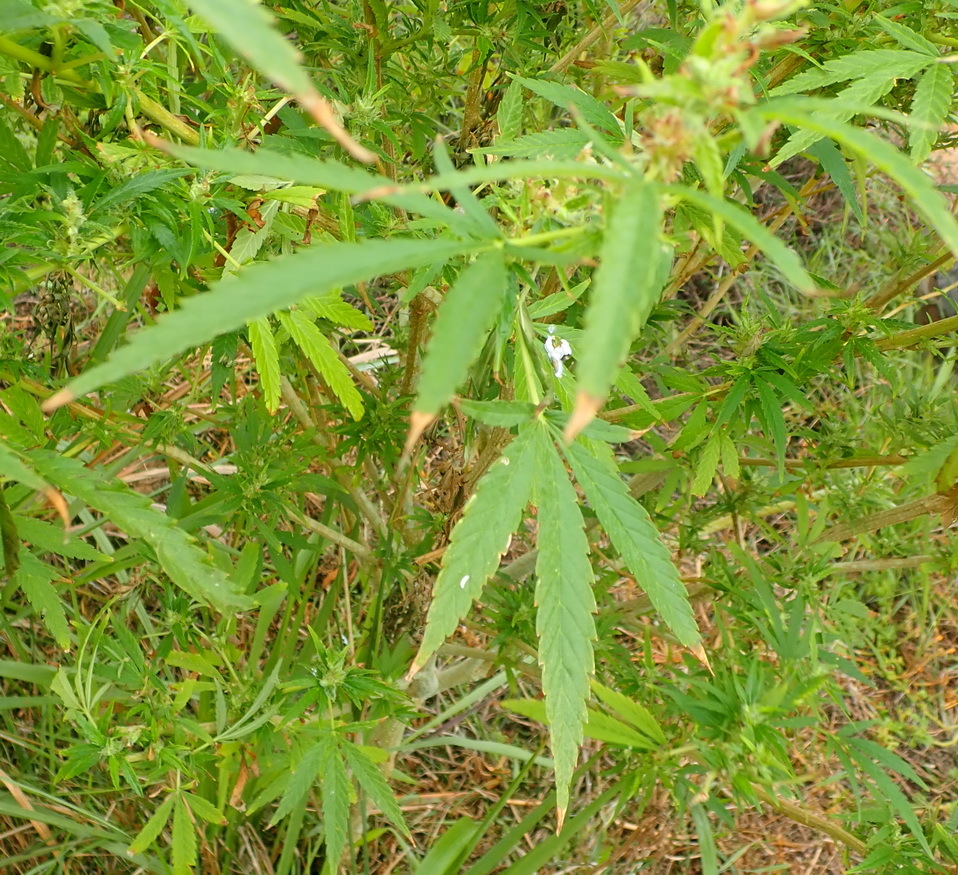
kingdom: Plantae
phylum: Tracheophyta
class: Magnoliopsida
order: Rosales
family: Cannabaceae
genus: Cannabis
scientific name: Cannabis sativa
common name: Hemp
